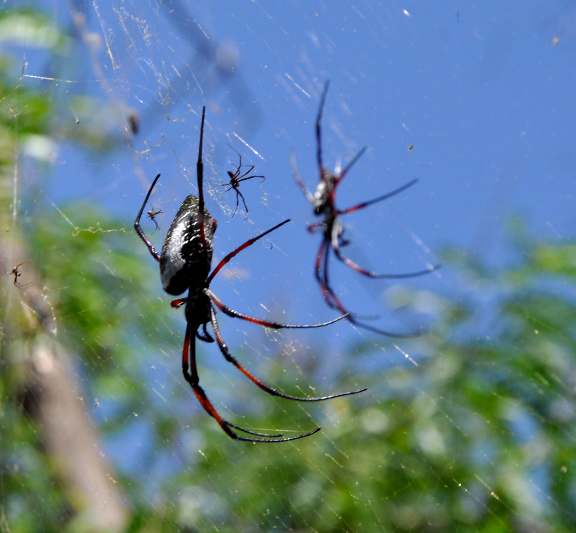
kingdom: Animalia
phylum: Arthropoda
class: Arachnida
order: Araneae
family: Araneidae
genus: Trichonephila
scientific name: Trichonephila inaurata
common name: Red-legged golden orb weaver
